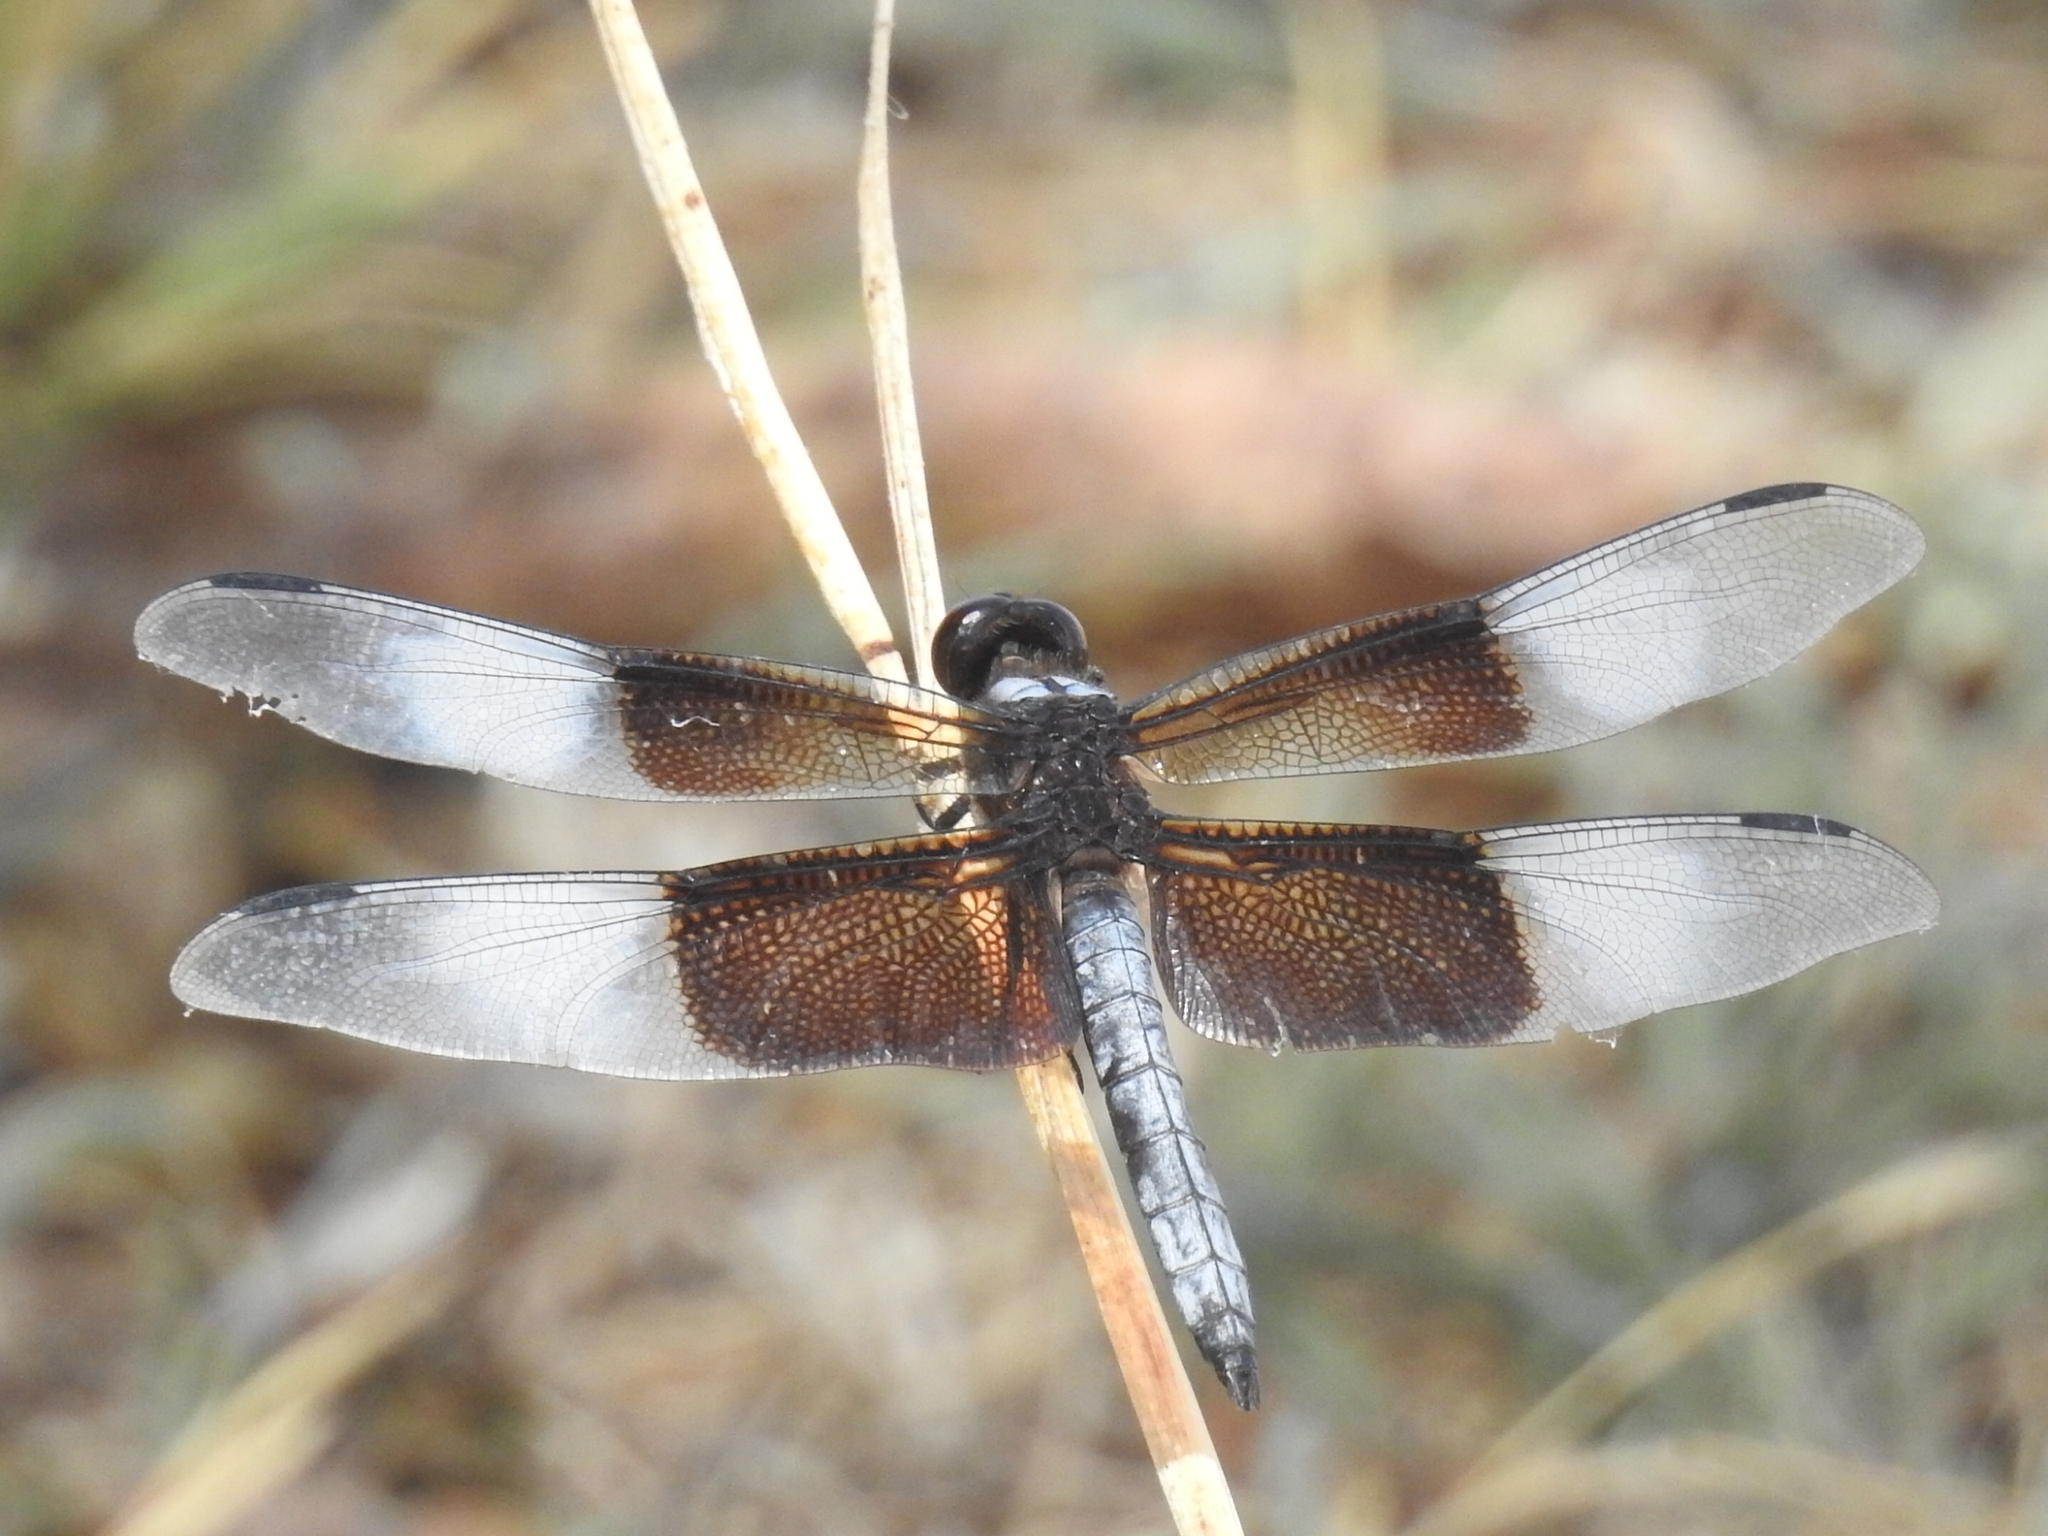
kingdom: Animalia
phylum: Arthropoda
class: Insecta
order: Odonata
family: Libellulidae
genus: Libellula
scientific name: Libellula luctuosa
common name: Widow skimmer
